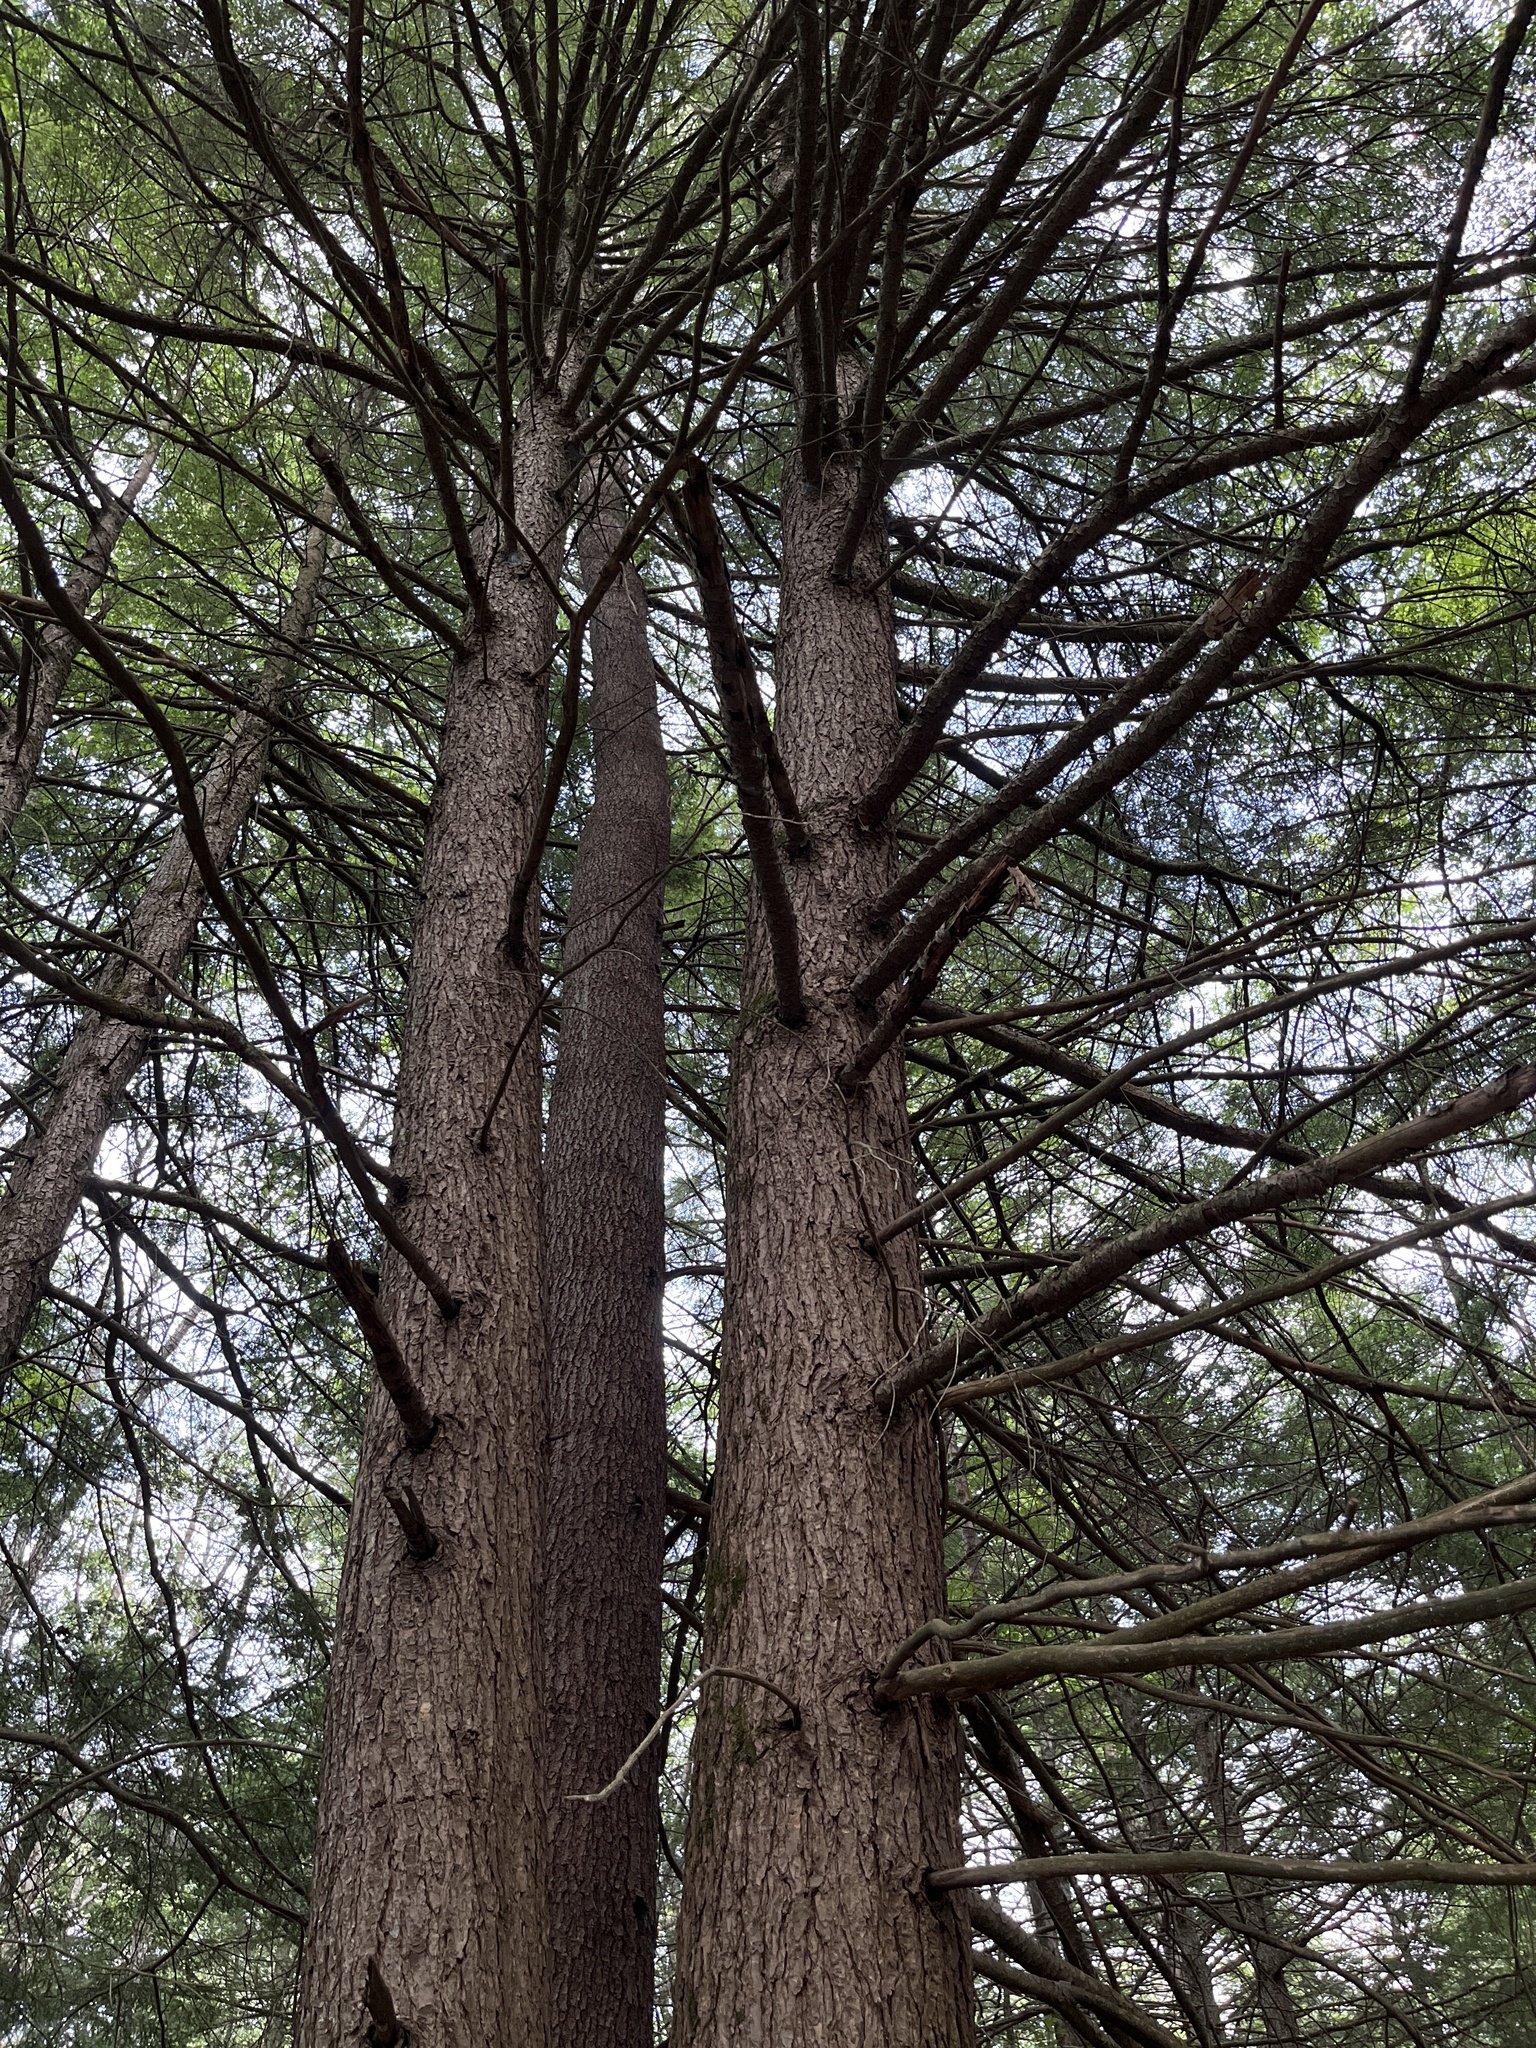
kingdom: Plantae
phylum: Tracheophyta
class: Magnoliopsida
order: Ericales
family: Ericaceae
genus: Monotropa
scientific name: Monotropa uniflora
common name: Convulsion root
